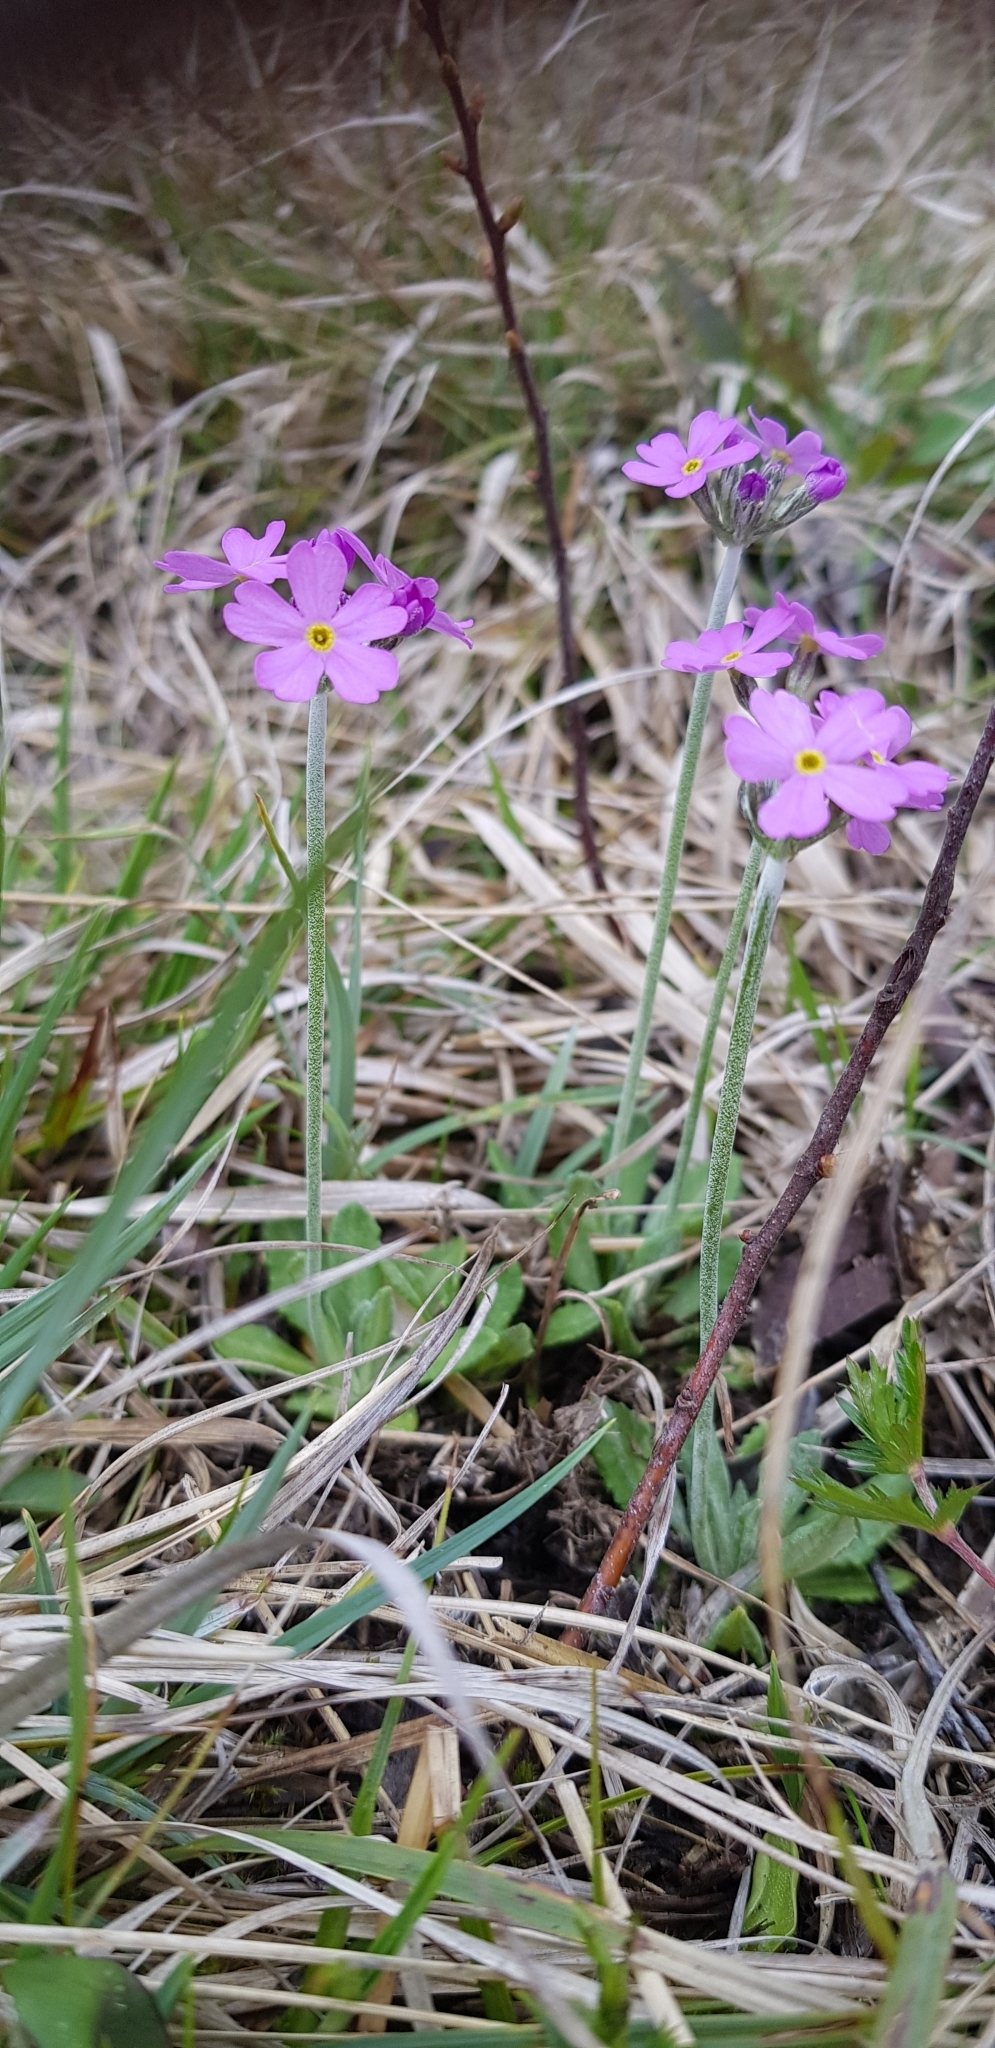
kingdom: Plantae
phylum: Tracheophyta
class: Magnoliopsida
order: Ericales
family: Primulaceae
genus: Primula
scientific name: Primula farinosa
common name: Bird's-eye primrose
